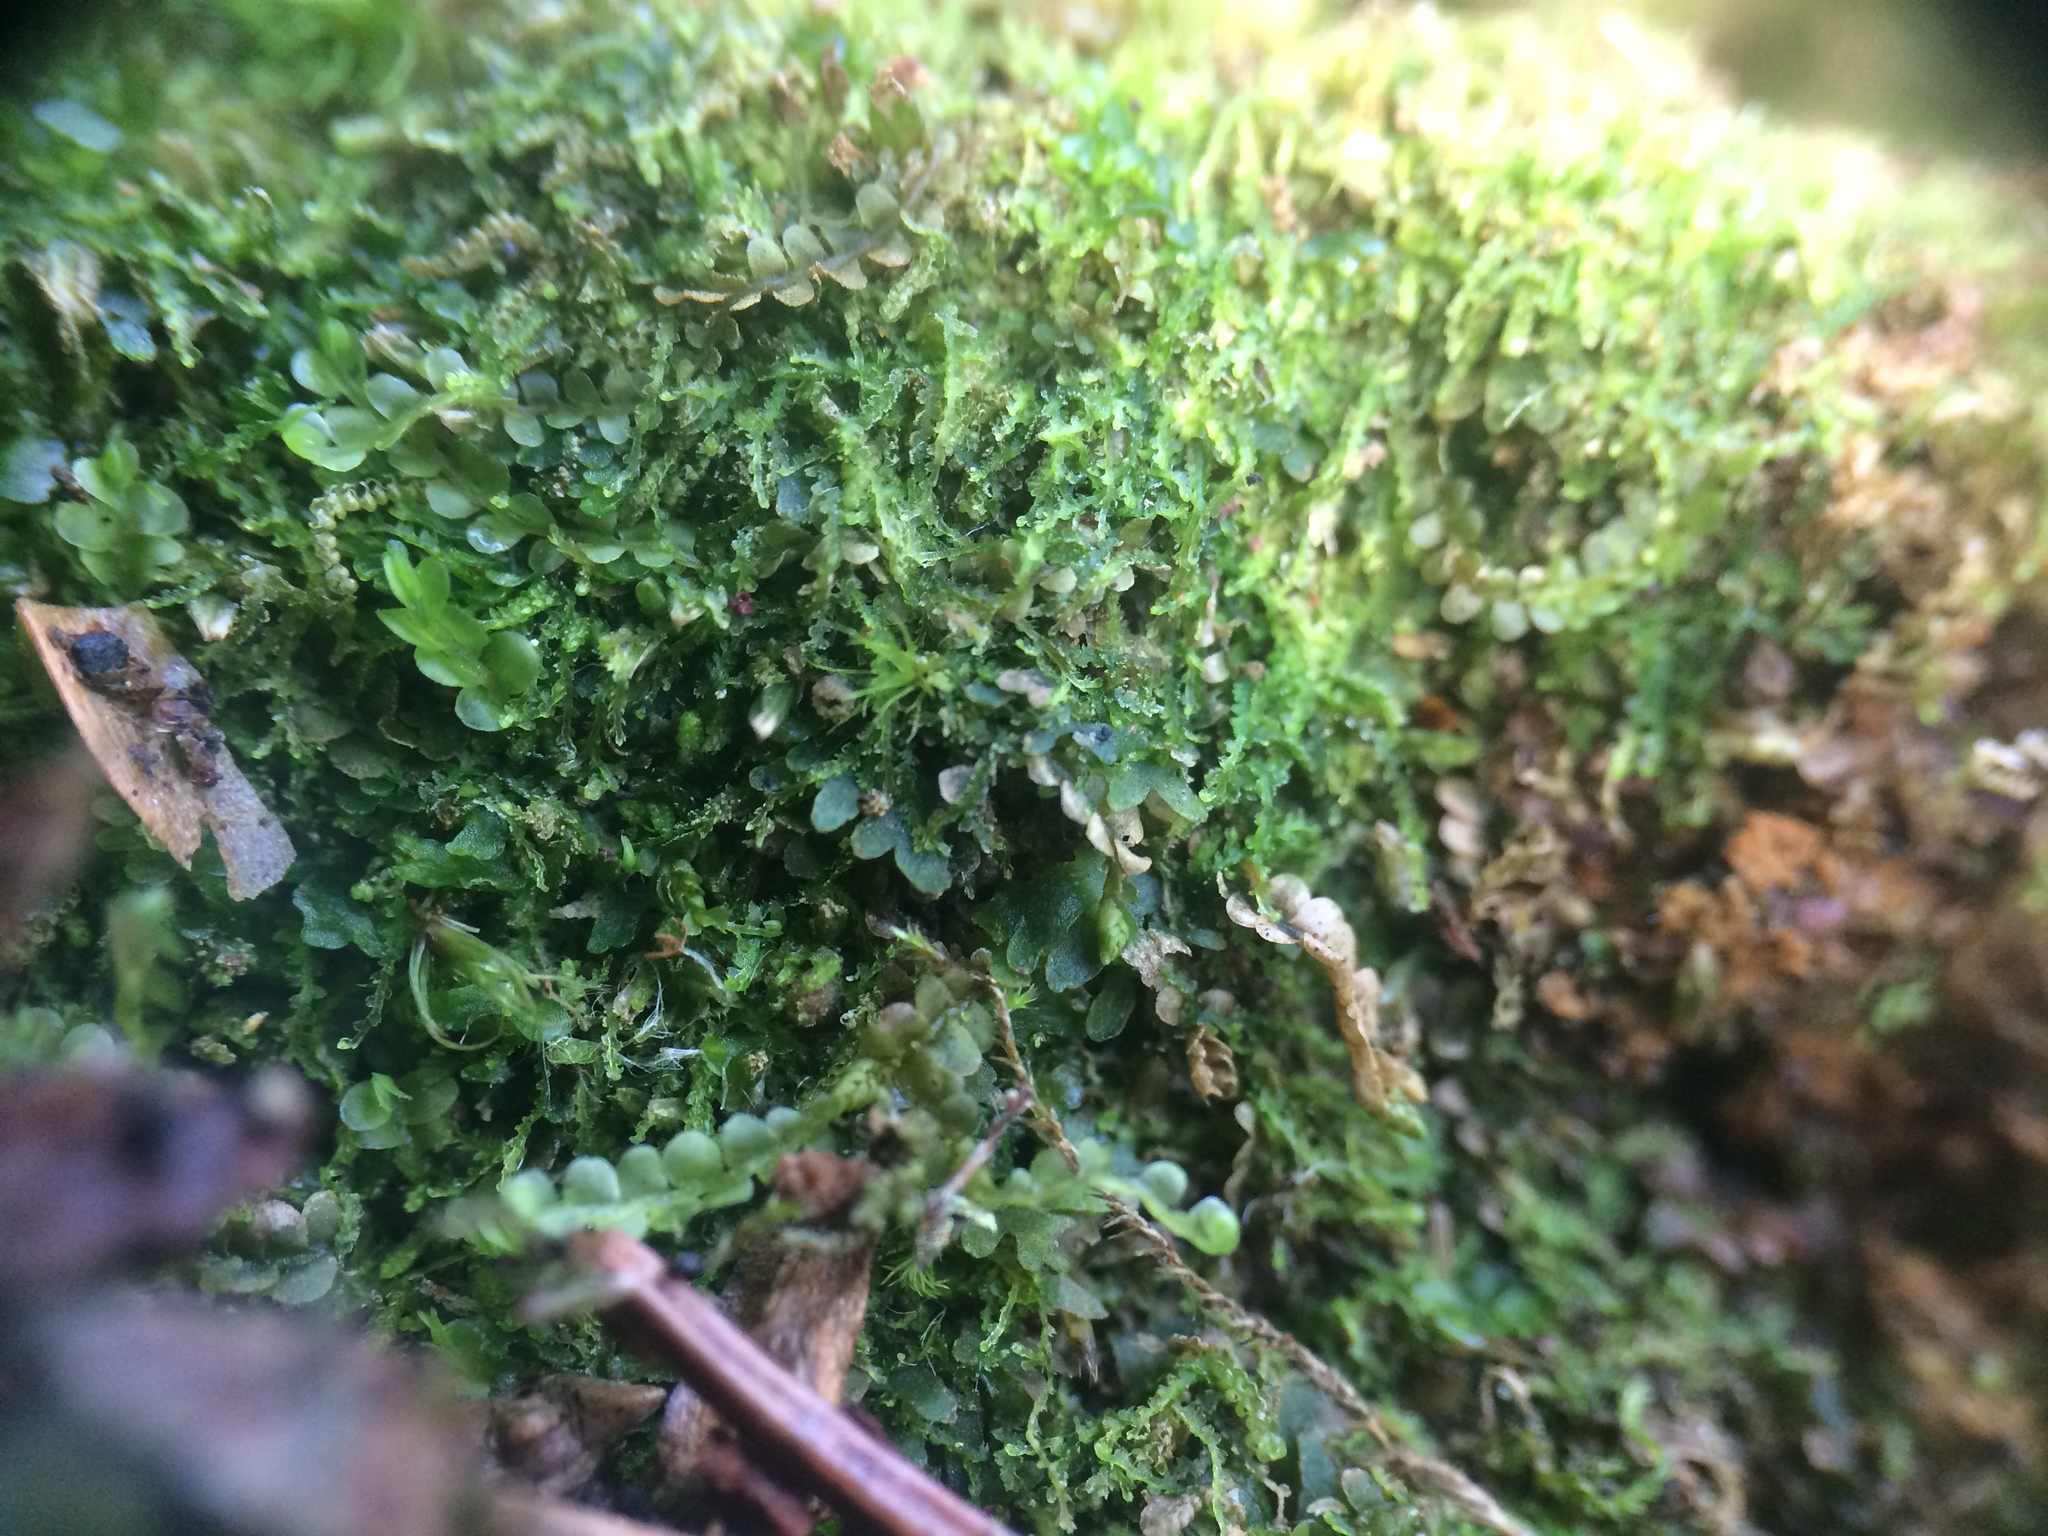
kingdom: Plantae
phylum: Marchantiophyta
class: Jungermanniopsida
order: Metzgeriales
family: Aneuraceae
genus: Riccardia
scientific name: Riccardia latifrons
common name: Bog germanderwort
